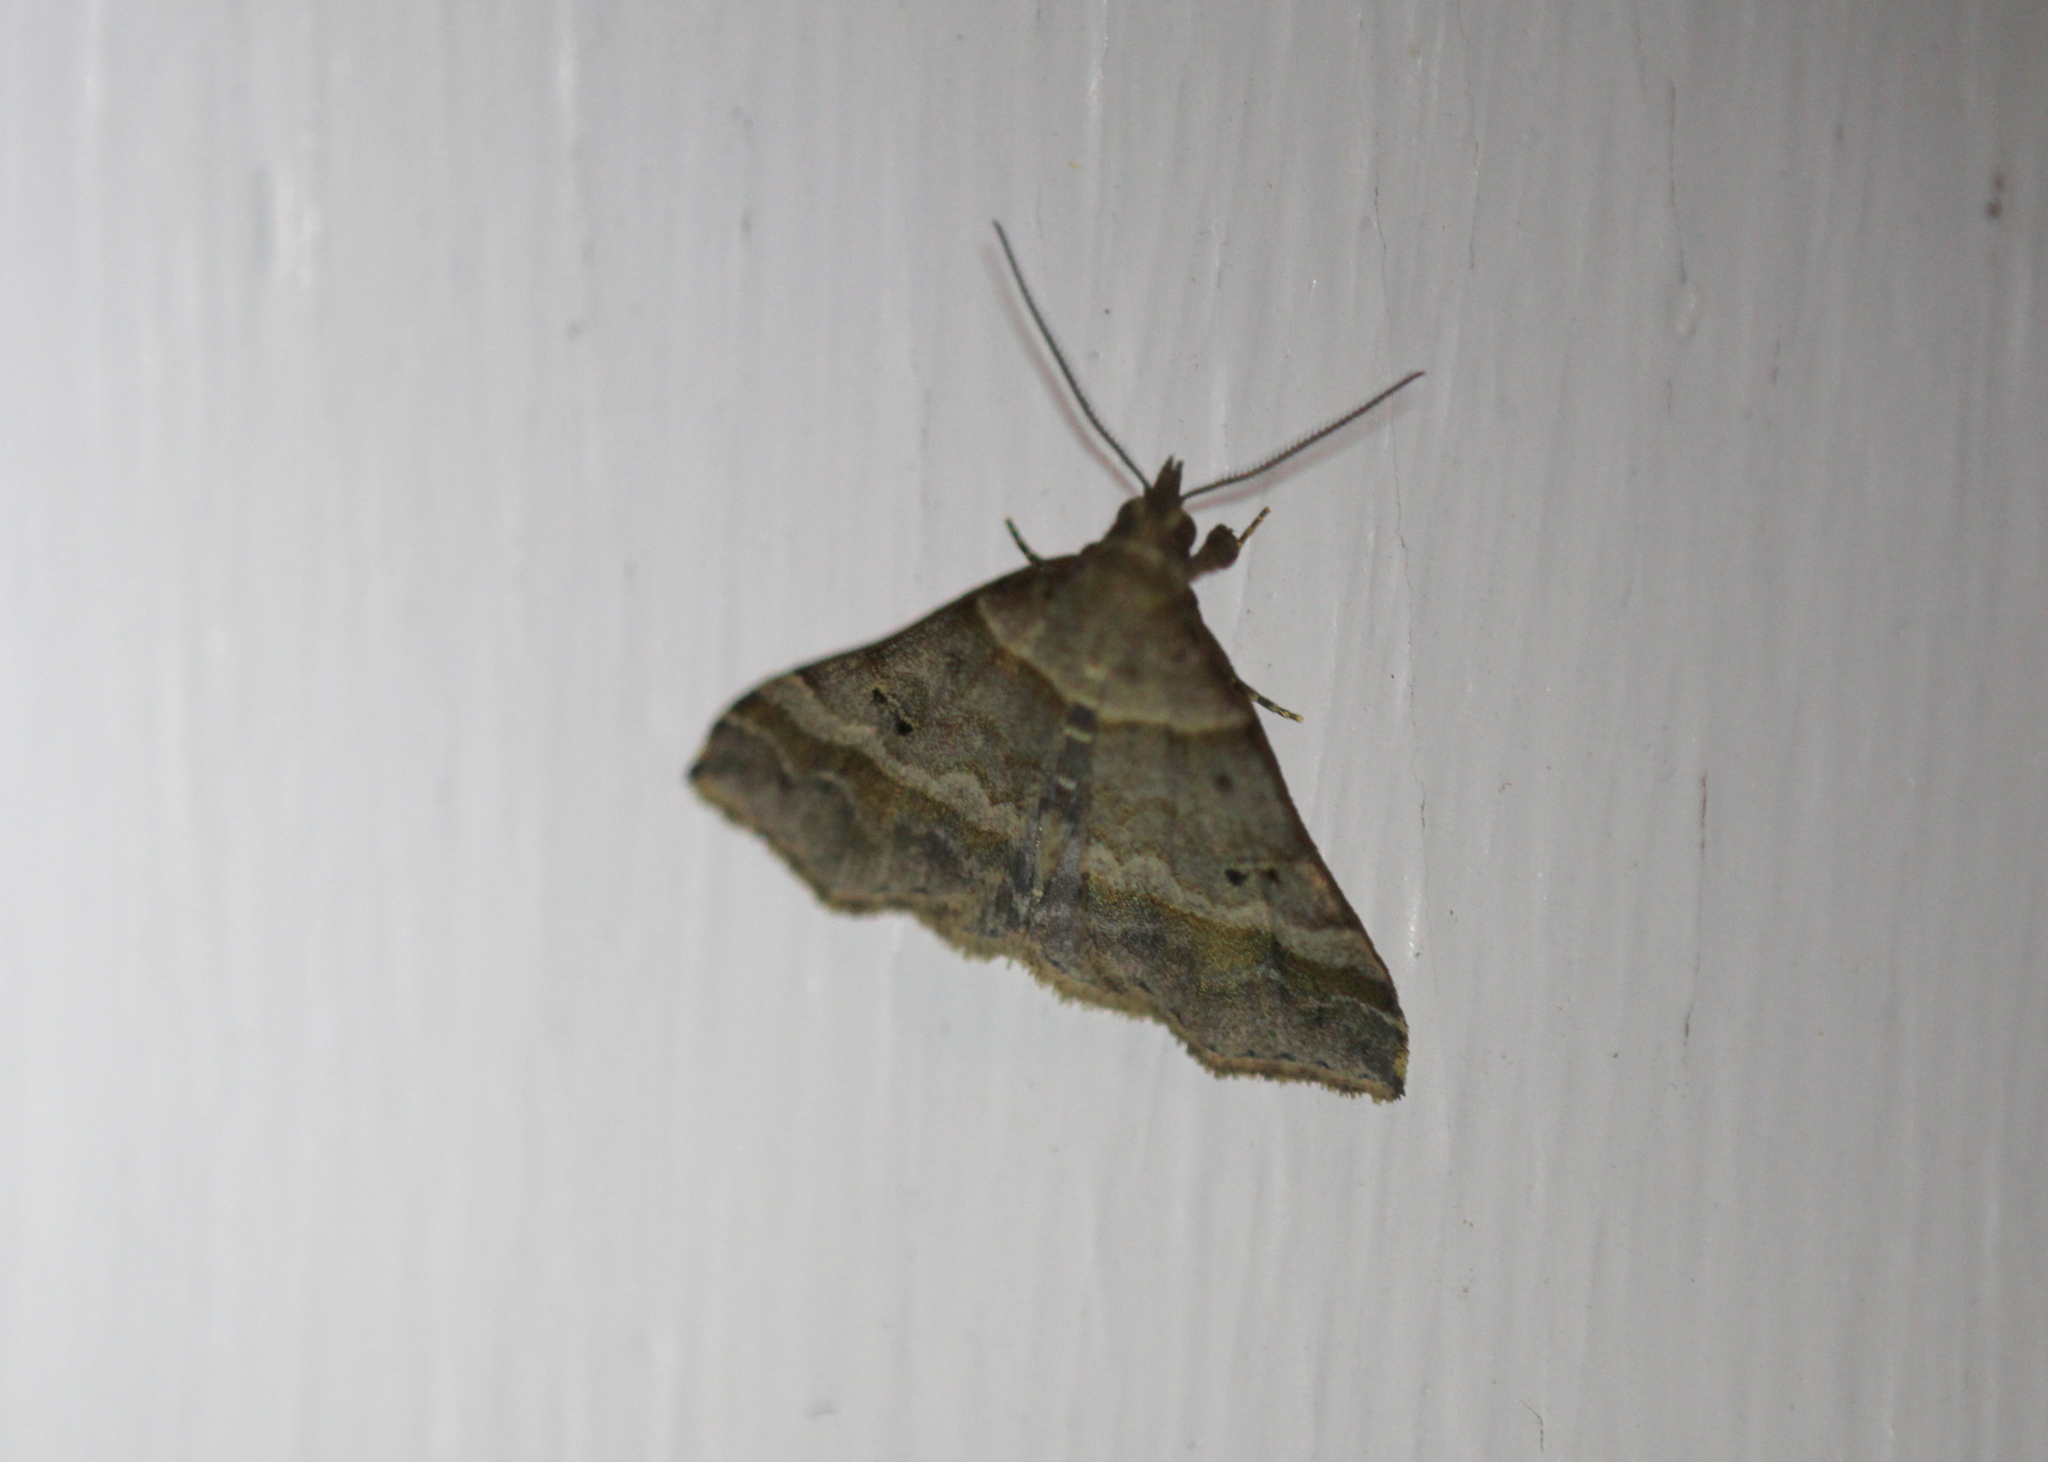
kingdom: Animalia
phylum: Arthropoda
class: Insecta
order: Lepidoptera
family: Erebidae
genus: Phaeolita
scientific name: Phaeolita pyramusalis
